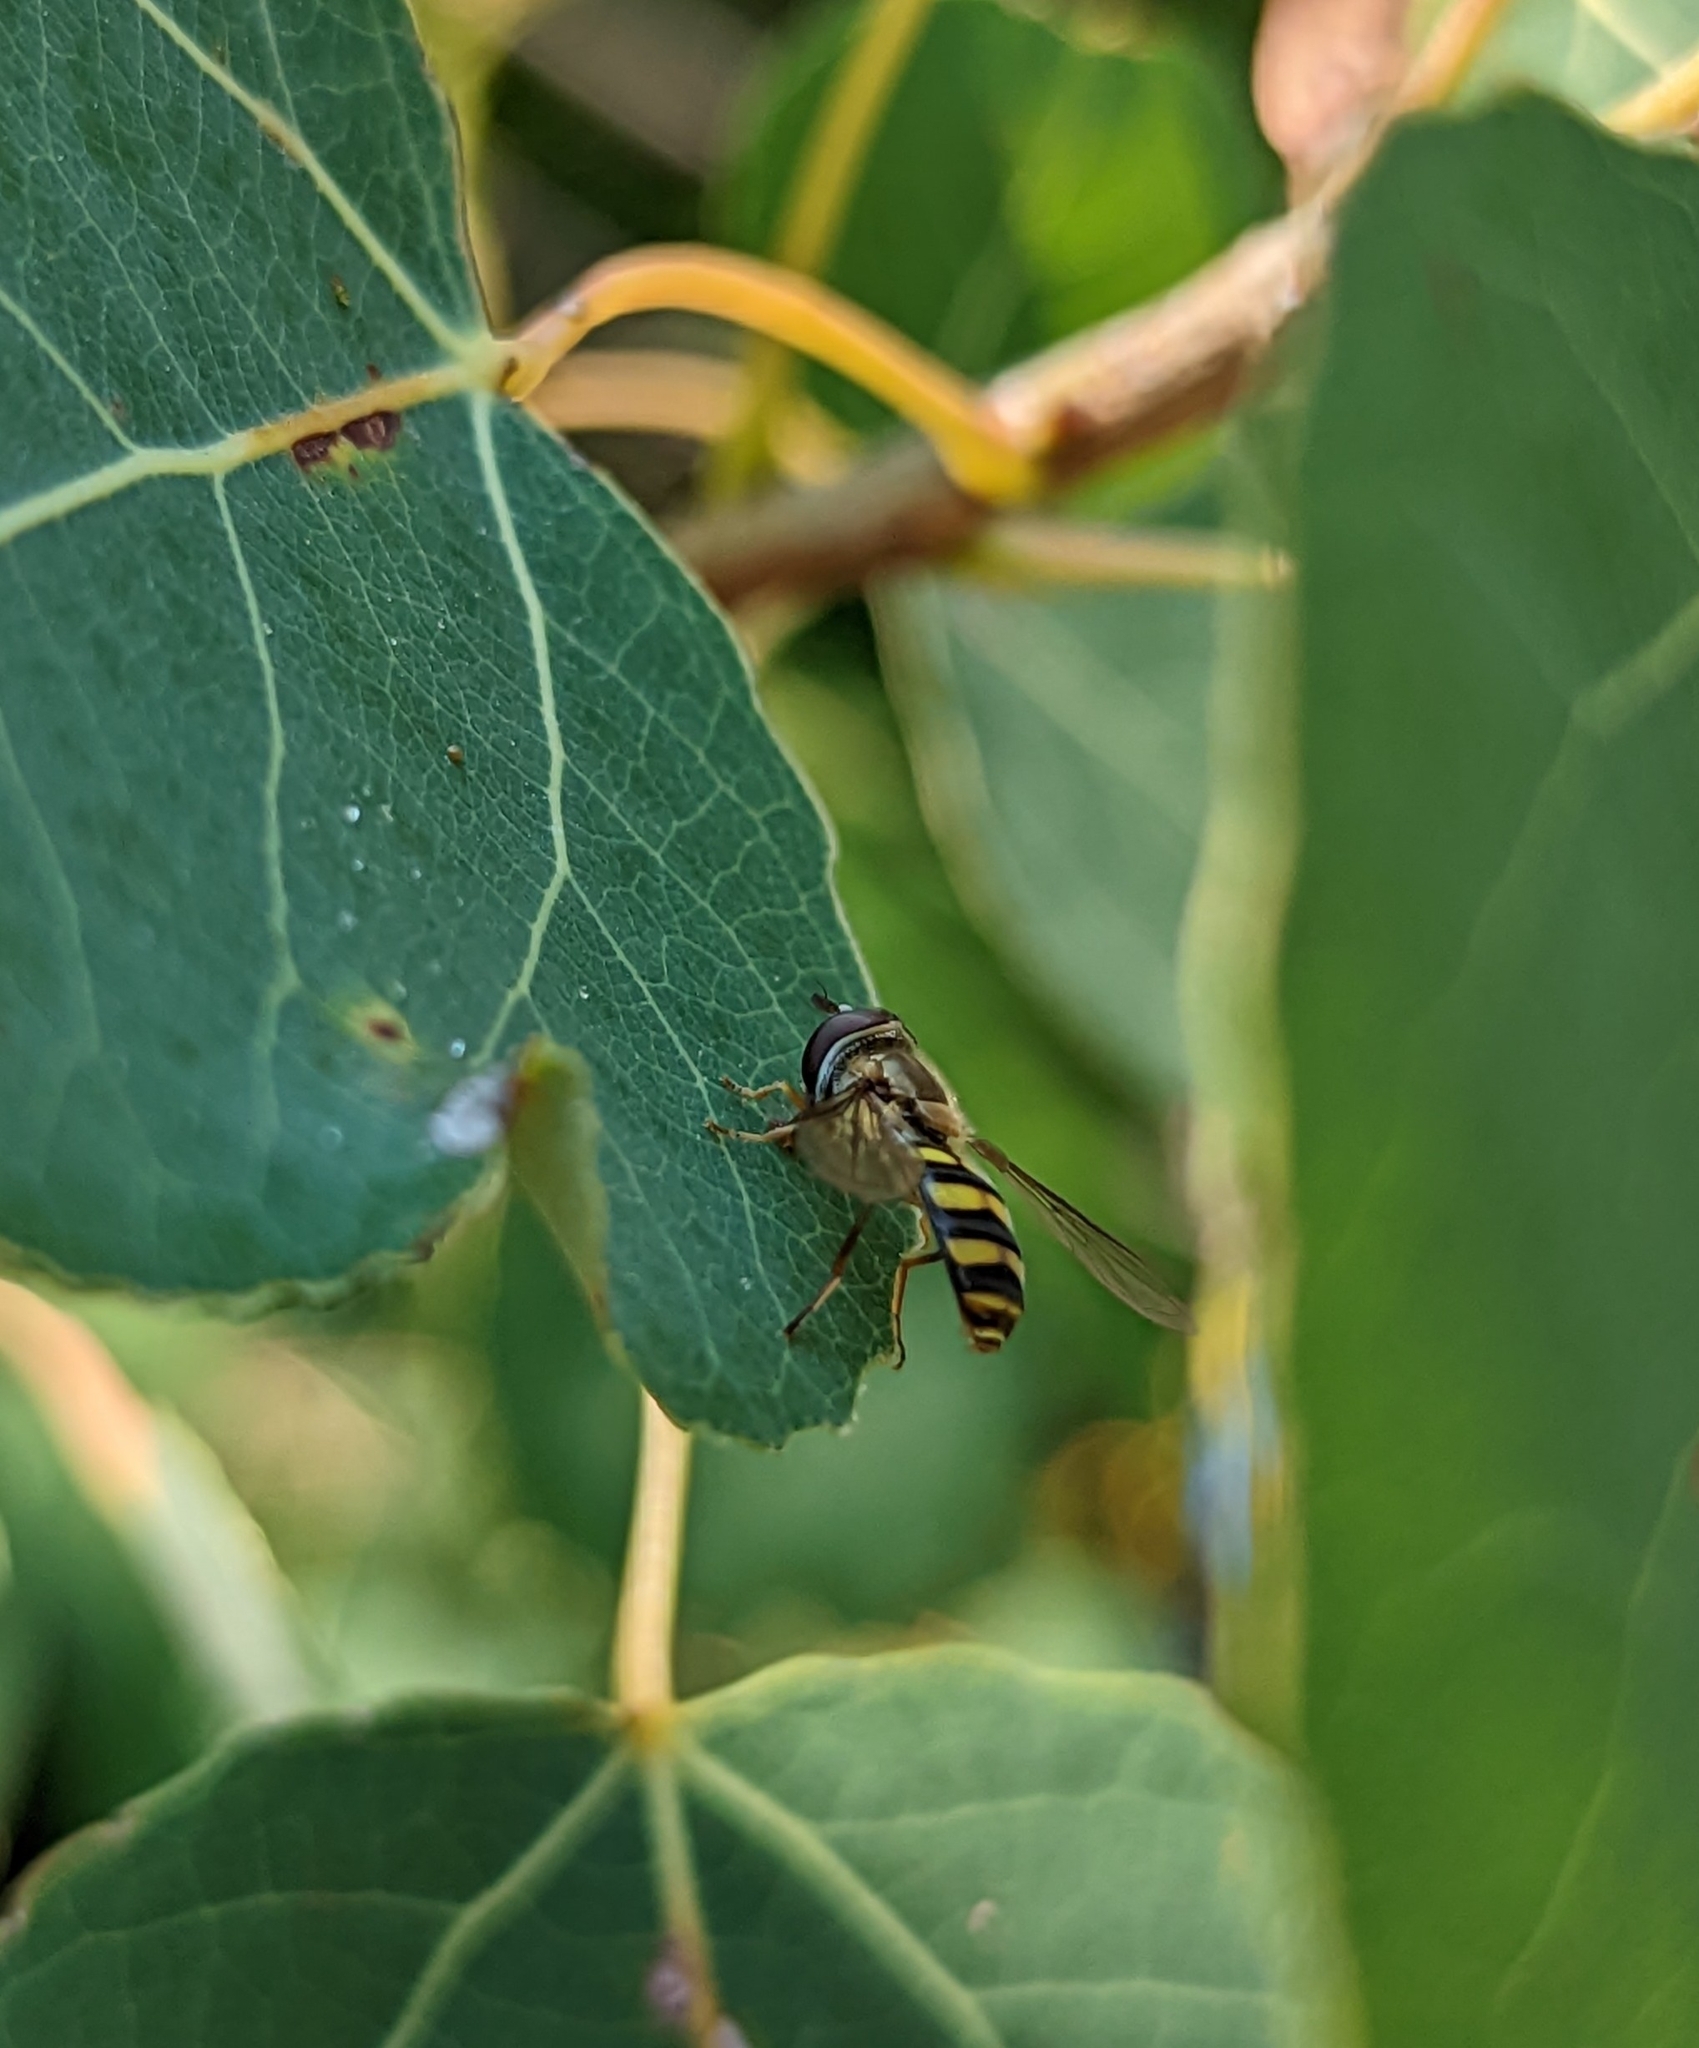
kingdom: Animalia
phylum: Arthropoda
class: Insecta
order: Diptera
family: Syrphidae
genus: Eupeodes
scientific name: Eupeodes
